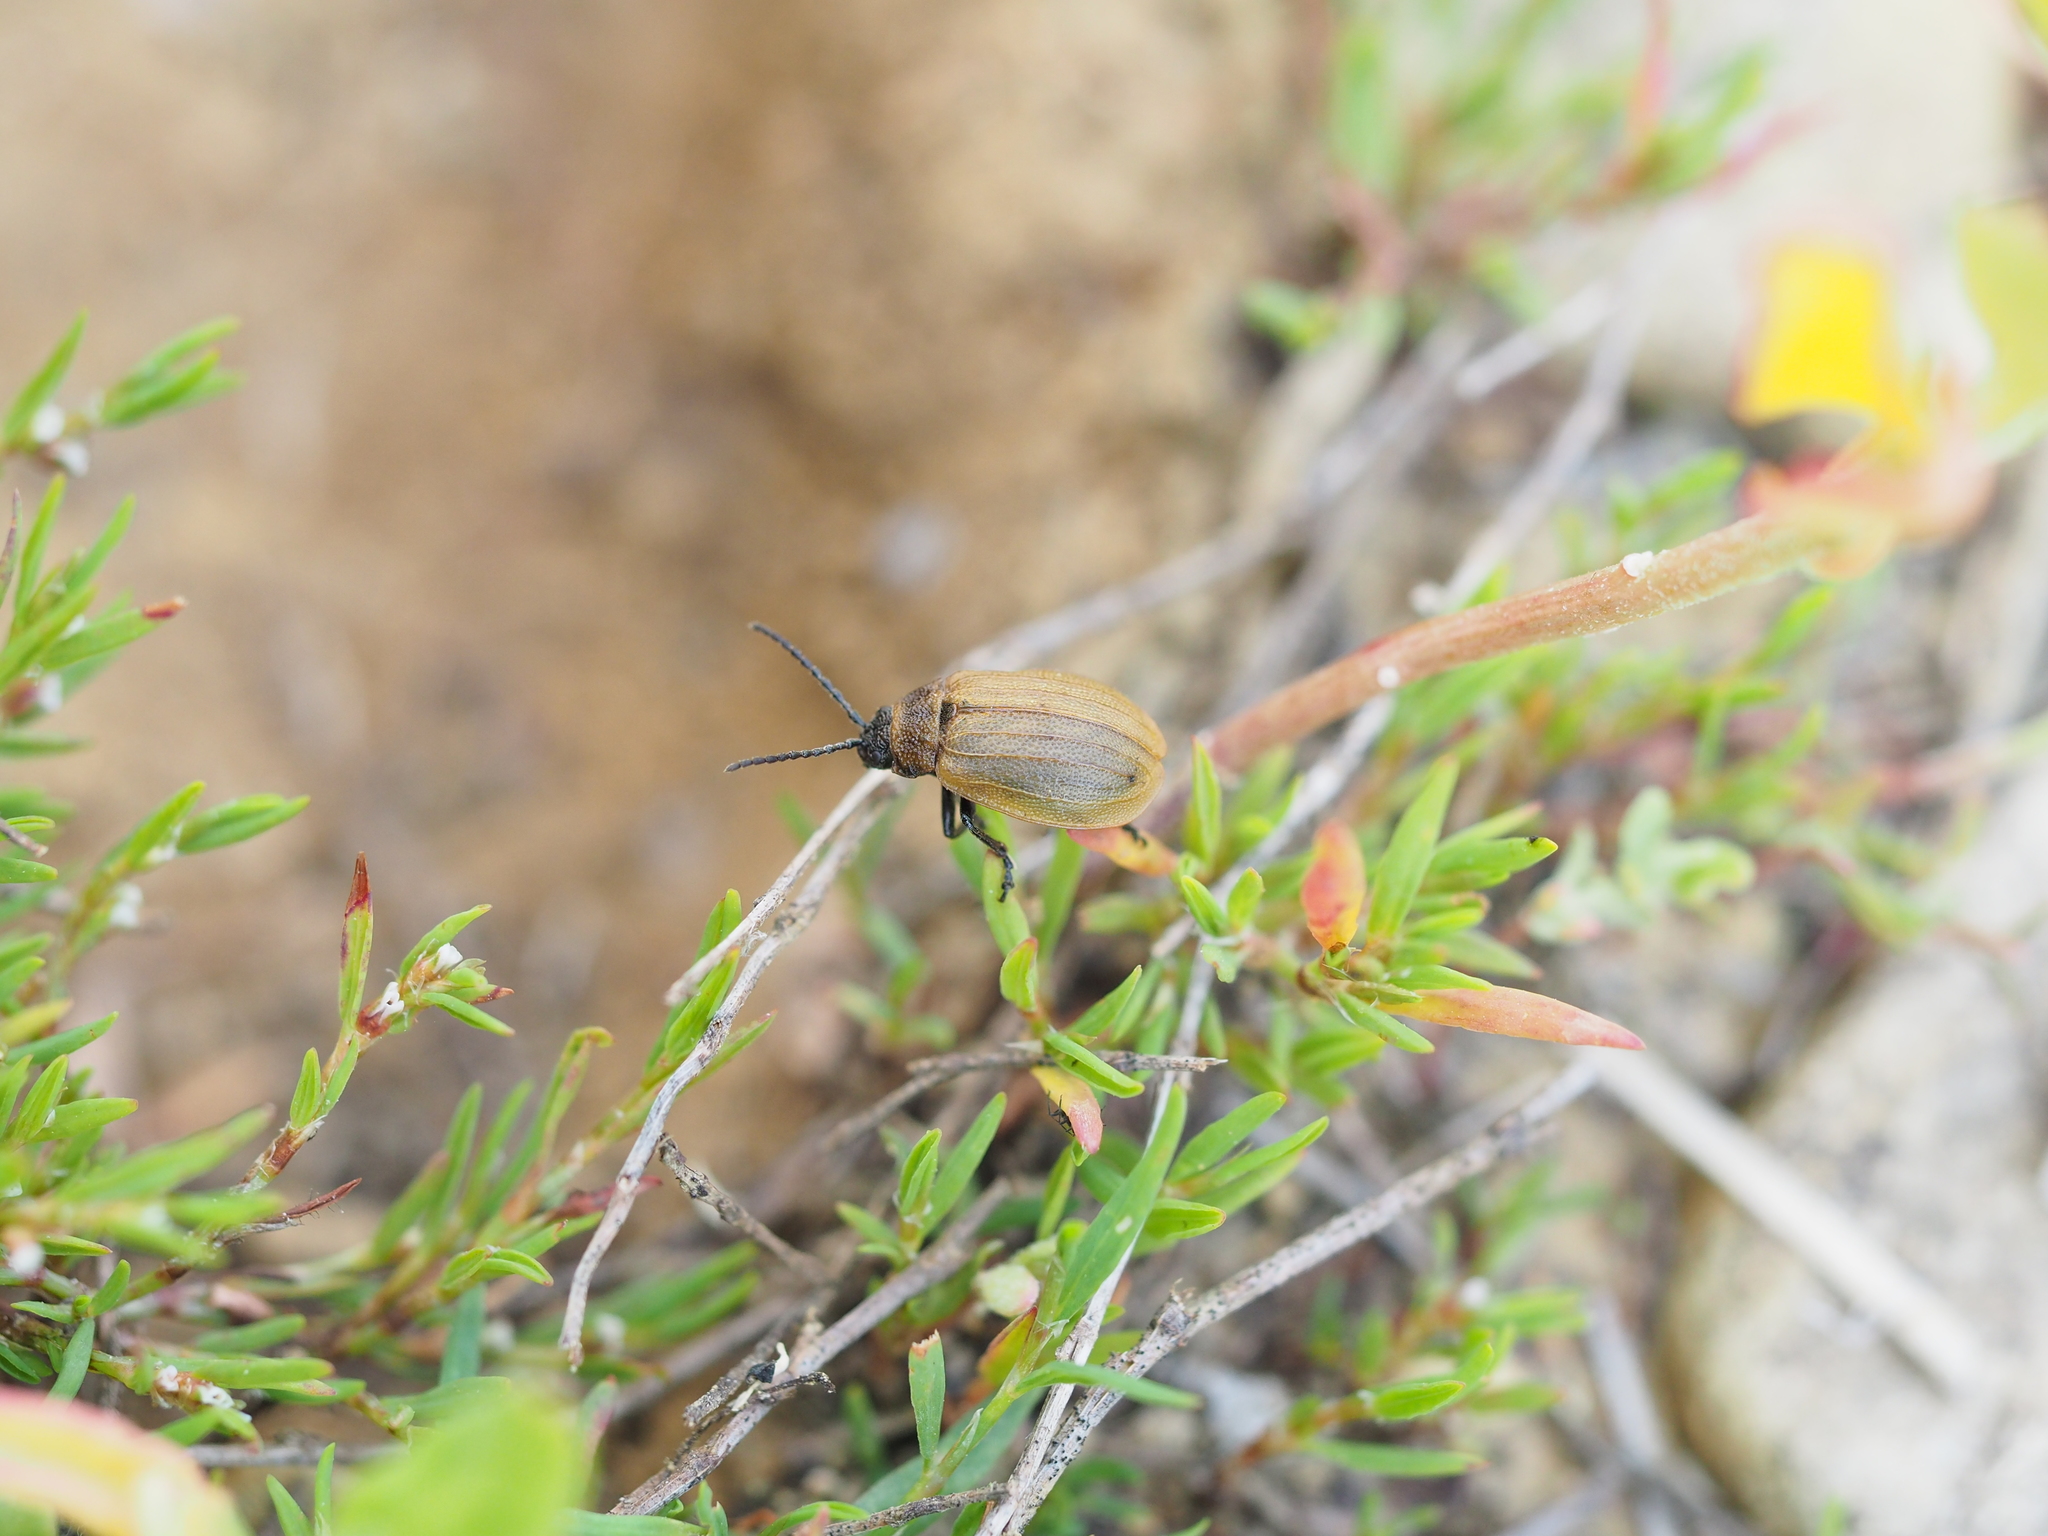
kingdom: Animalia
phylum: Arthropoda
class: Insecta
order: Coleoptera
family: Chrysomelidae
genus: Galeruca
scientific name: Galeruca pomonae
